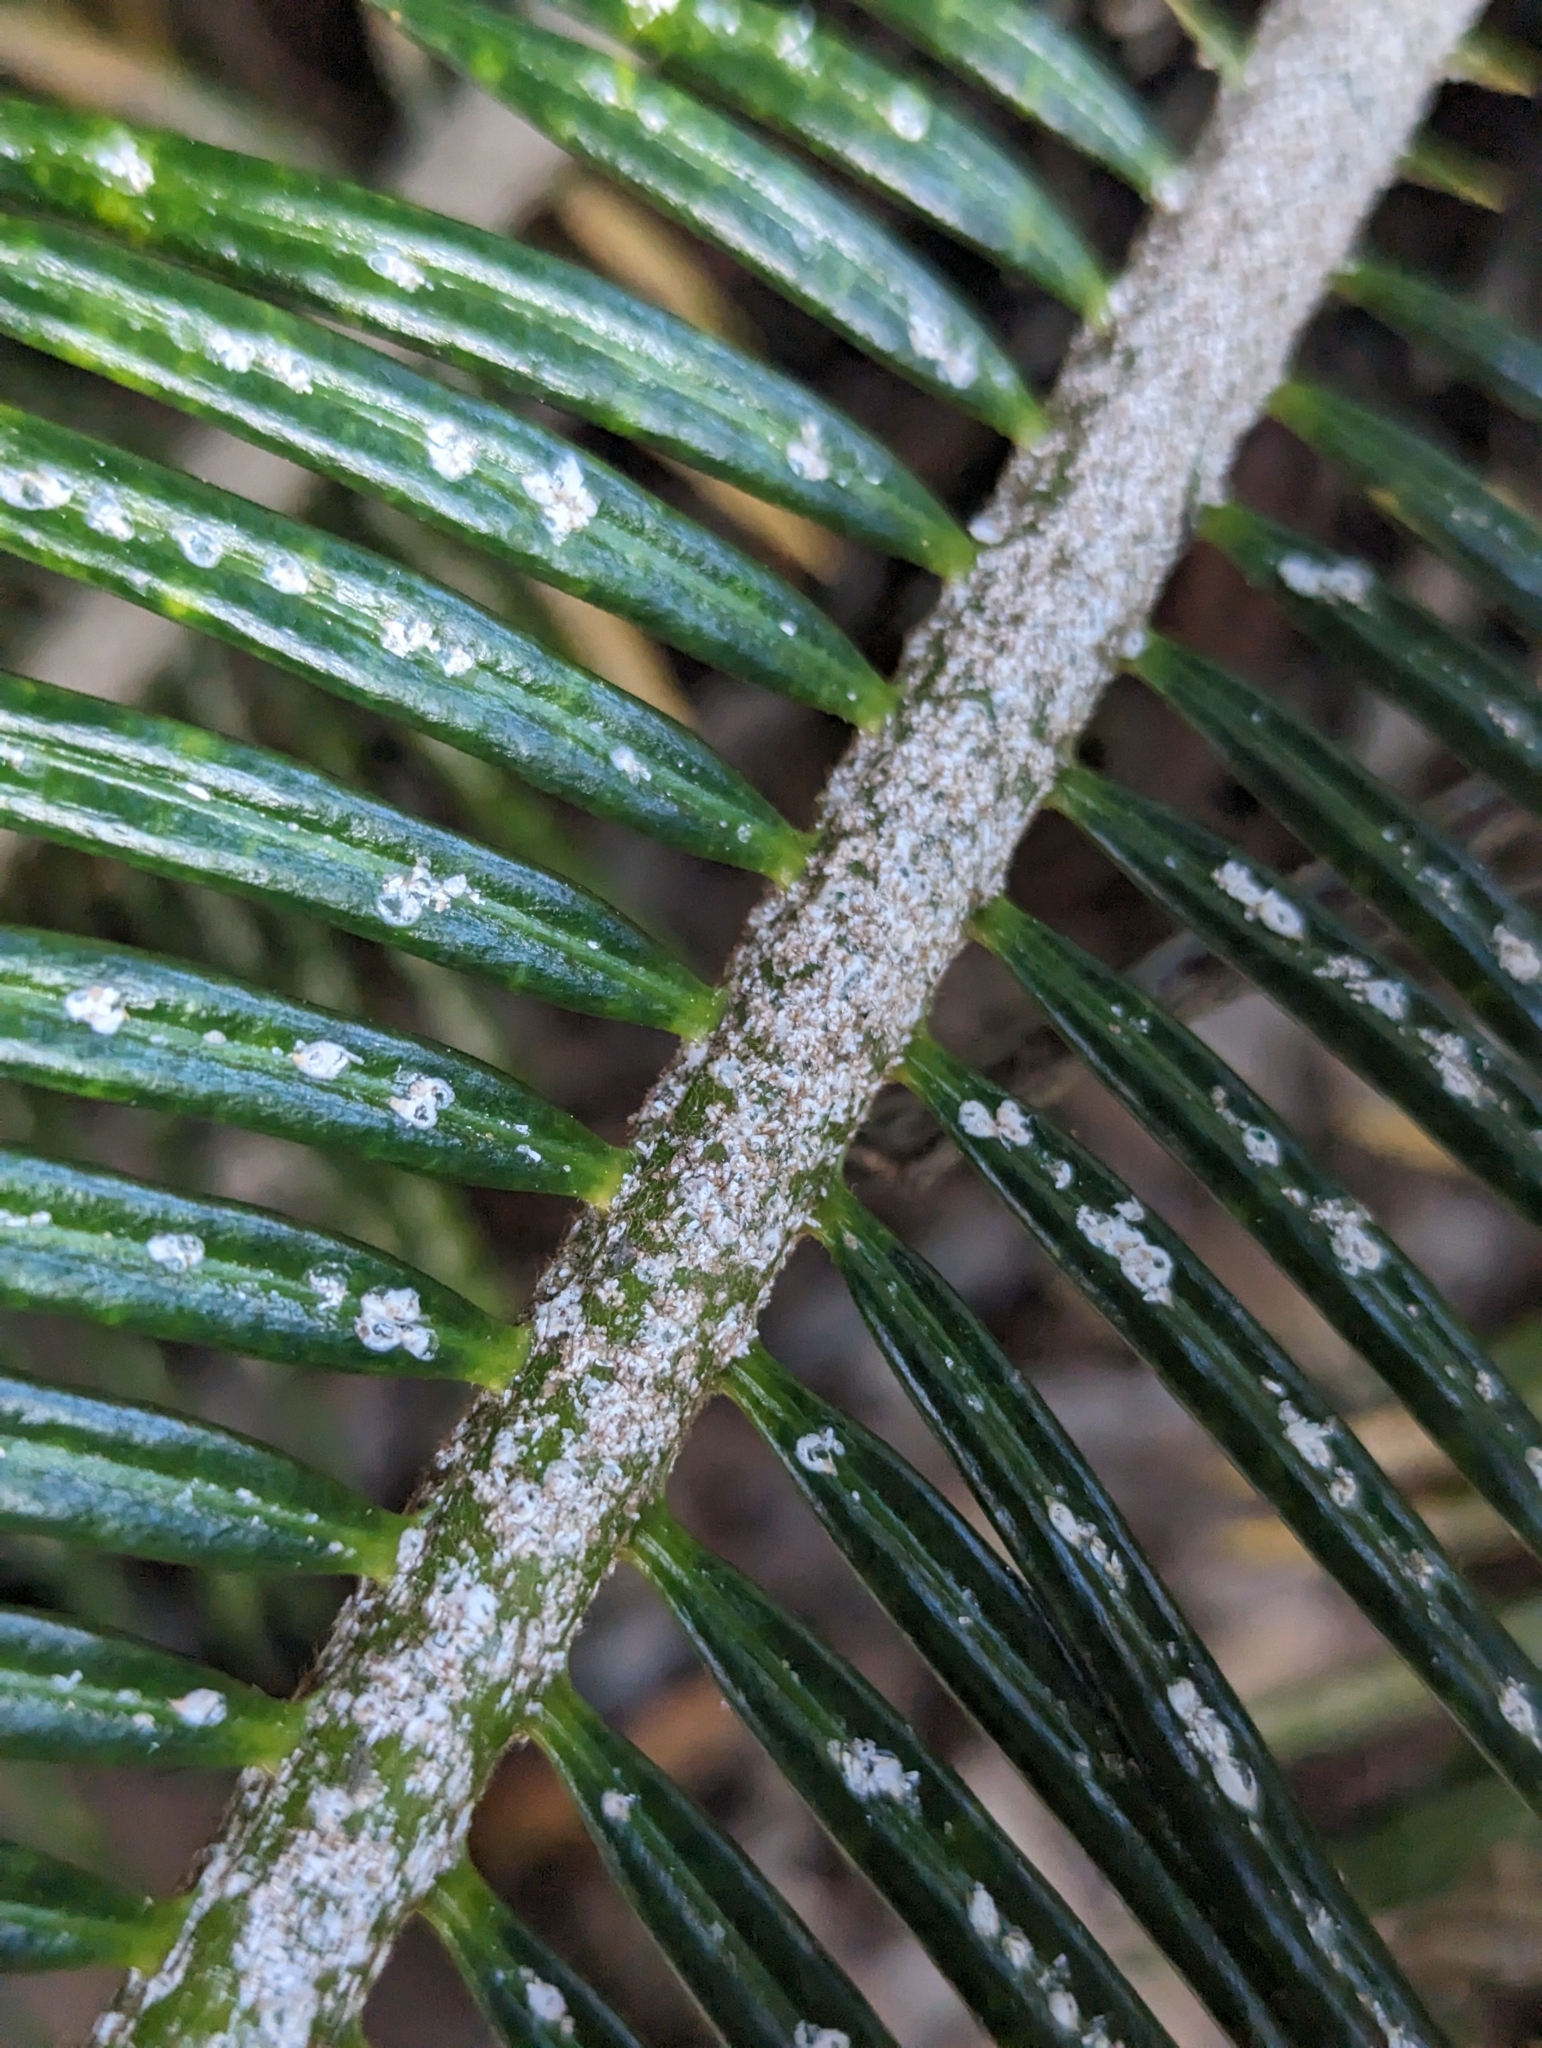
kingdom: Animalia
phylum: Arthropoda
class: Insecta
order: Hemiptera
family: Diaspididae
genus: Aulacaspis
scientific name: Aulacaspis yasumatsui
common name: Cycad aulacaspis scale
